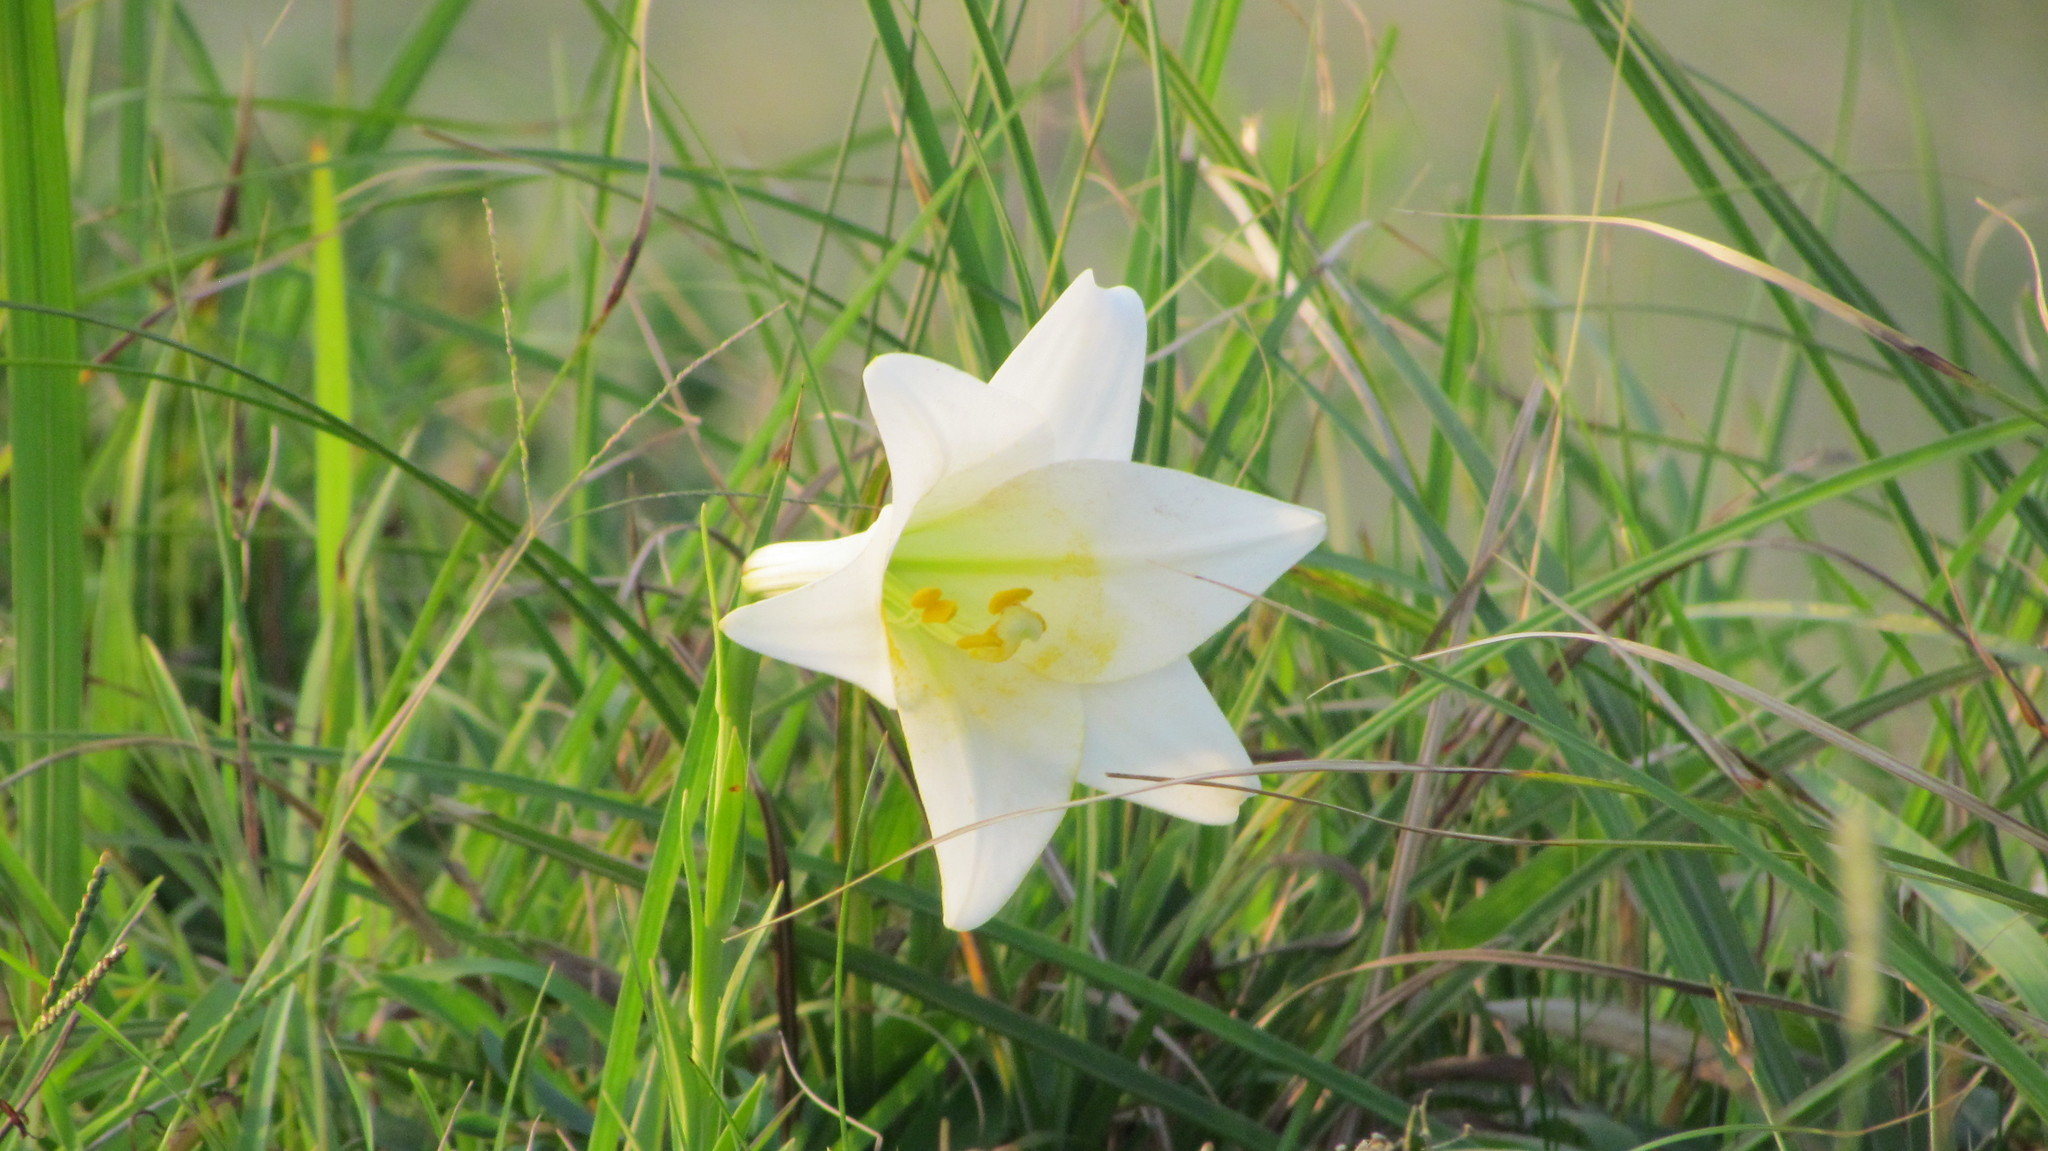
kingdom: Plantae
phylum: Tracheophyta
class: Liliopsida
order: Liliales
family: Liliaceae
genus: Lilium
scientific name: Lilium formosanum
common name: Formosa lily
